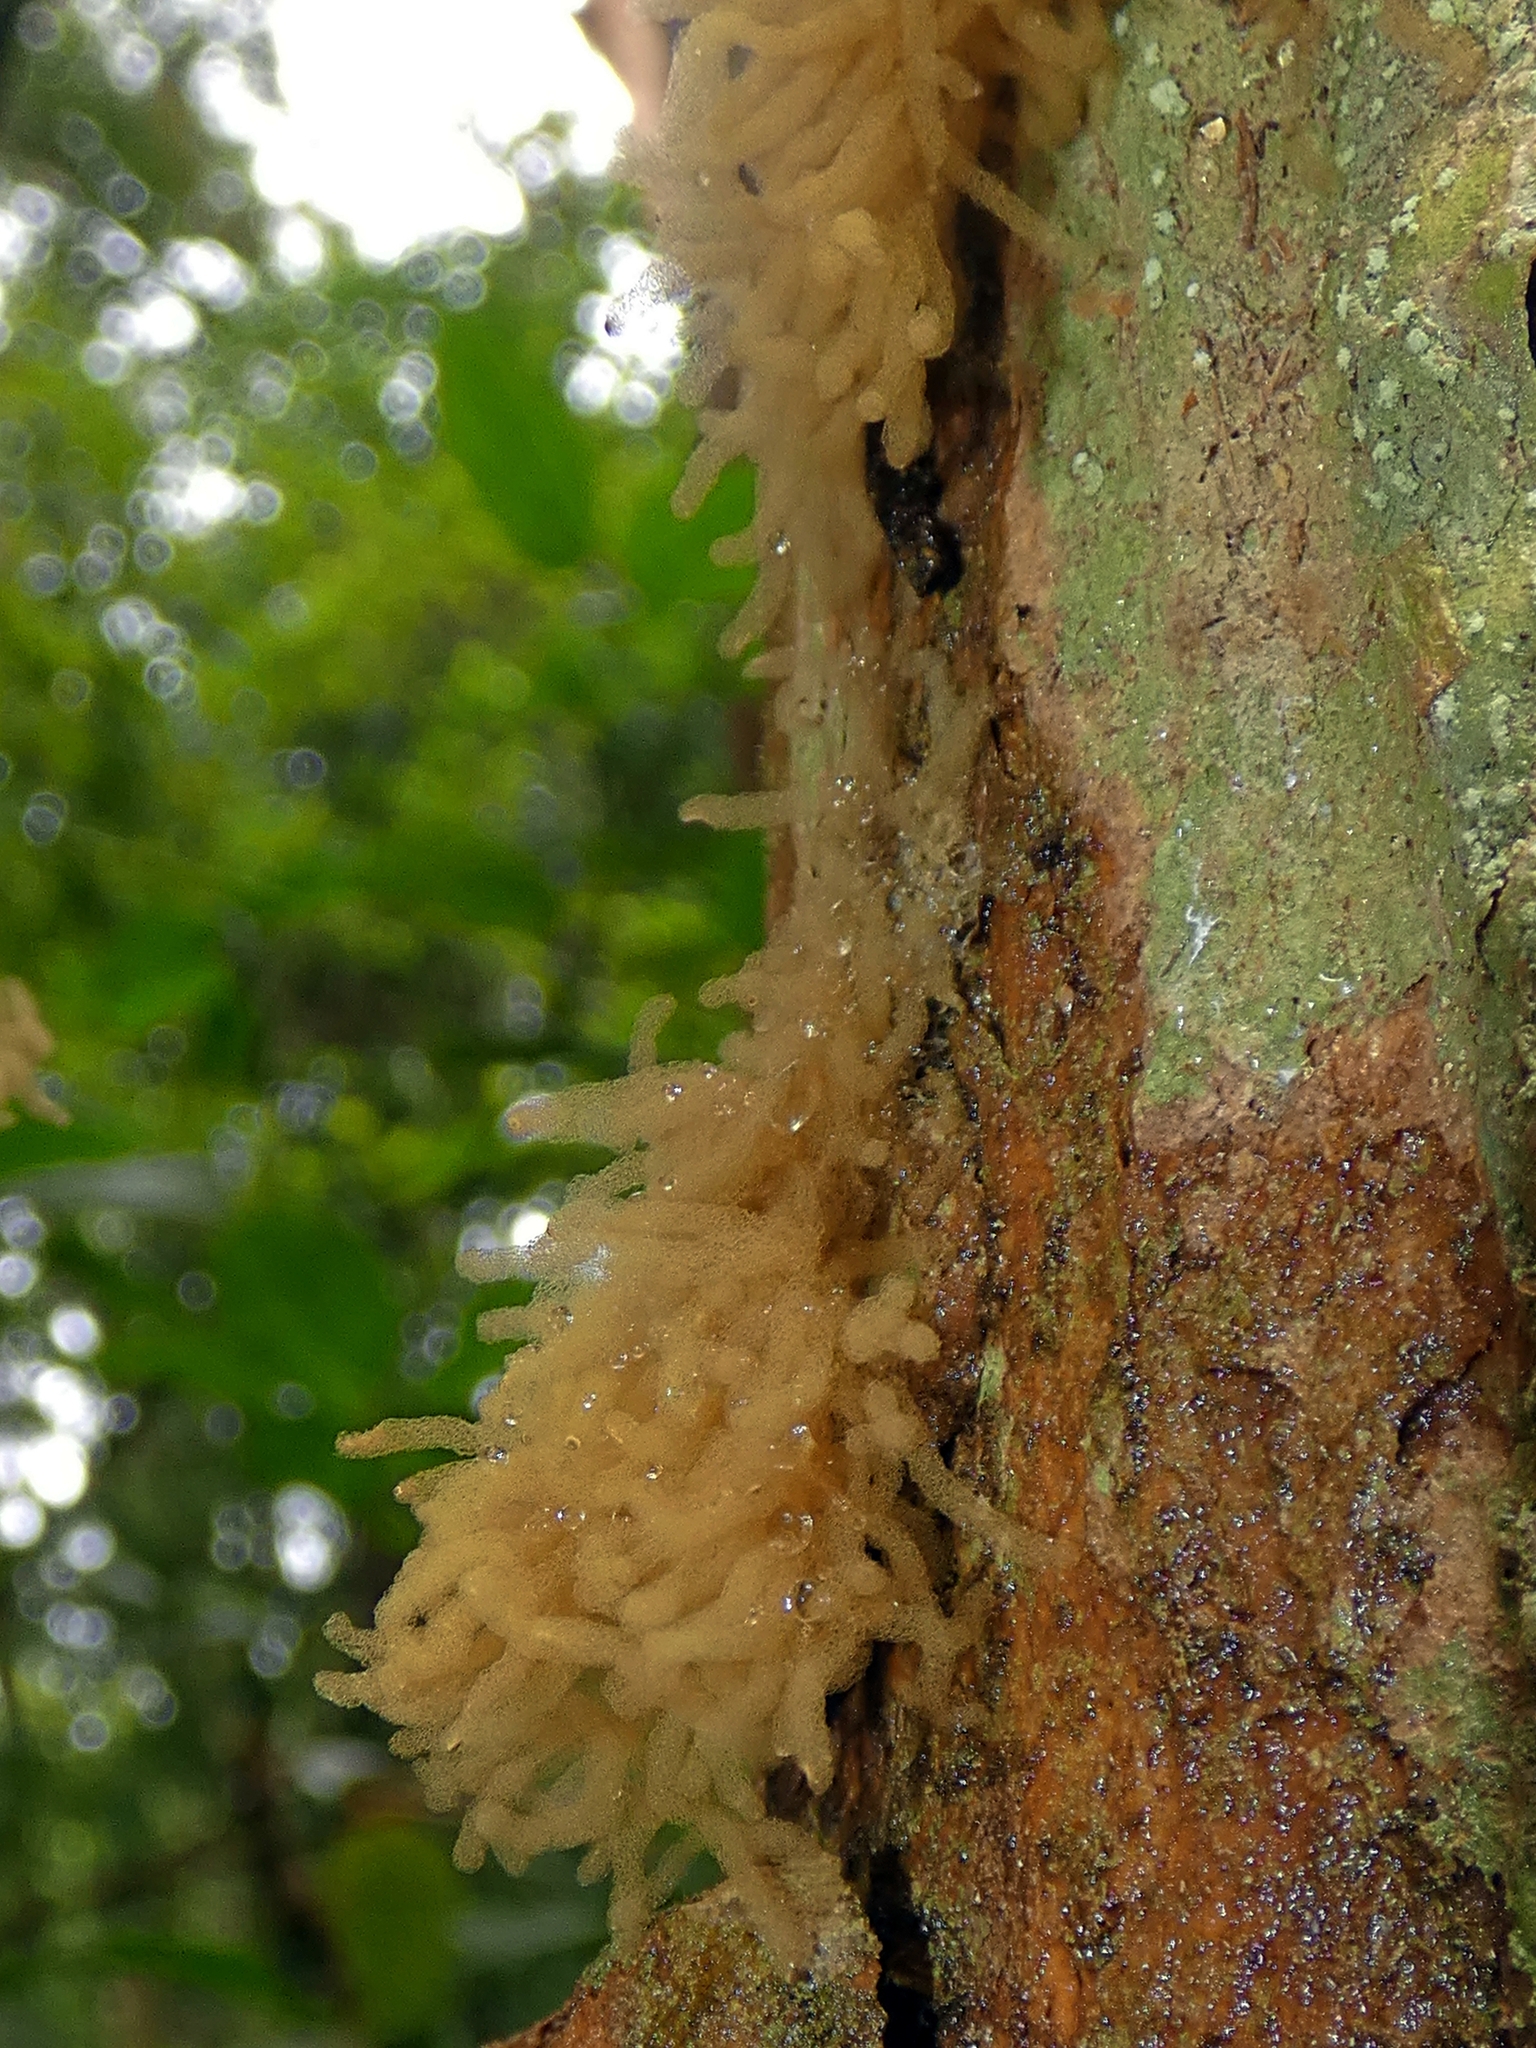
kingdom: Protozoa
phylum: Mycetozoa
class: Myxomycetes
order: Trichiales
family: Arcyriaceae
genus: Arcyria
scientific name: Arcyria obvelata
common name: Yellow carnival candy slime
